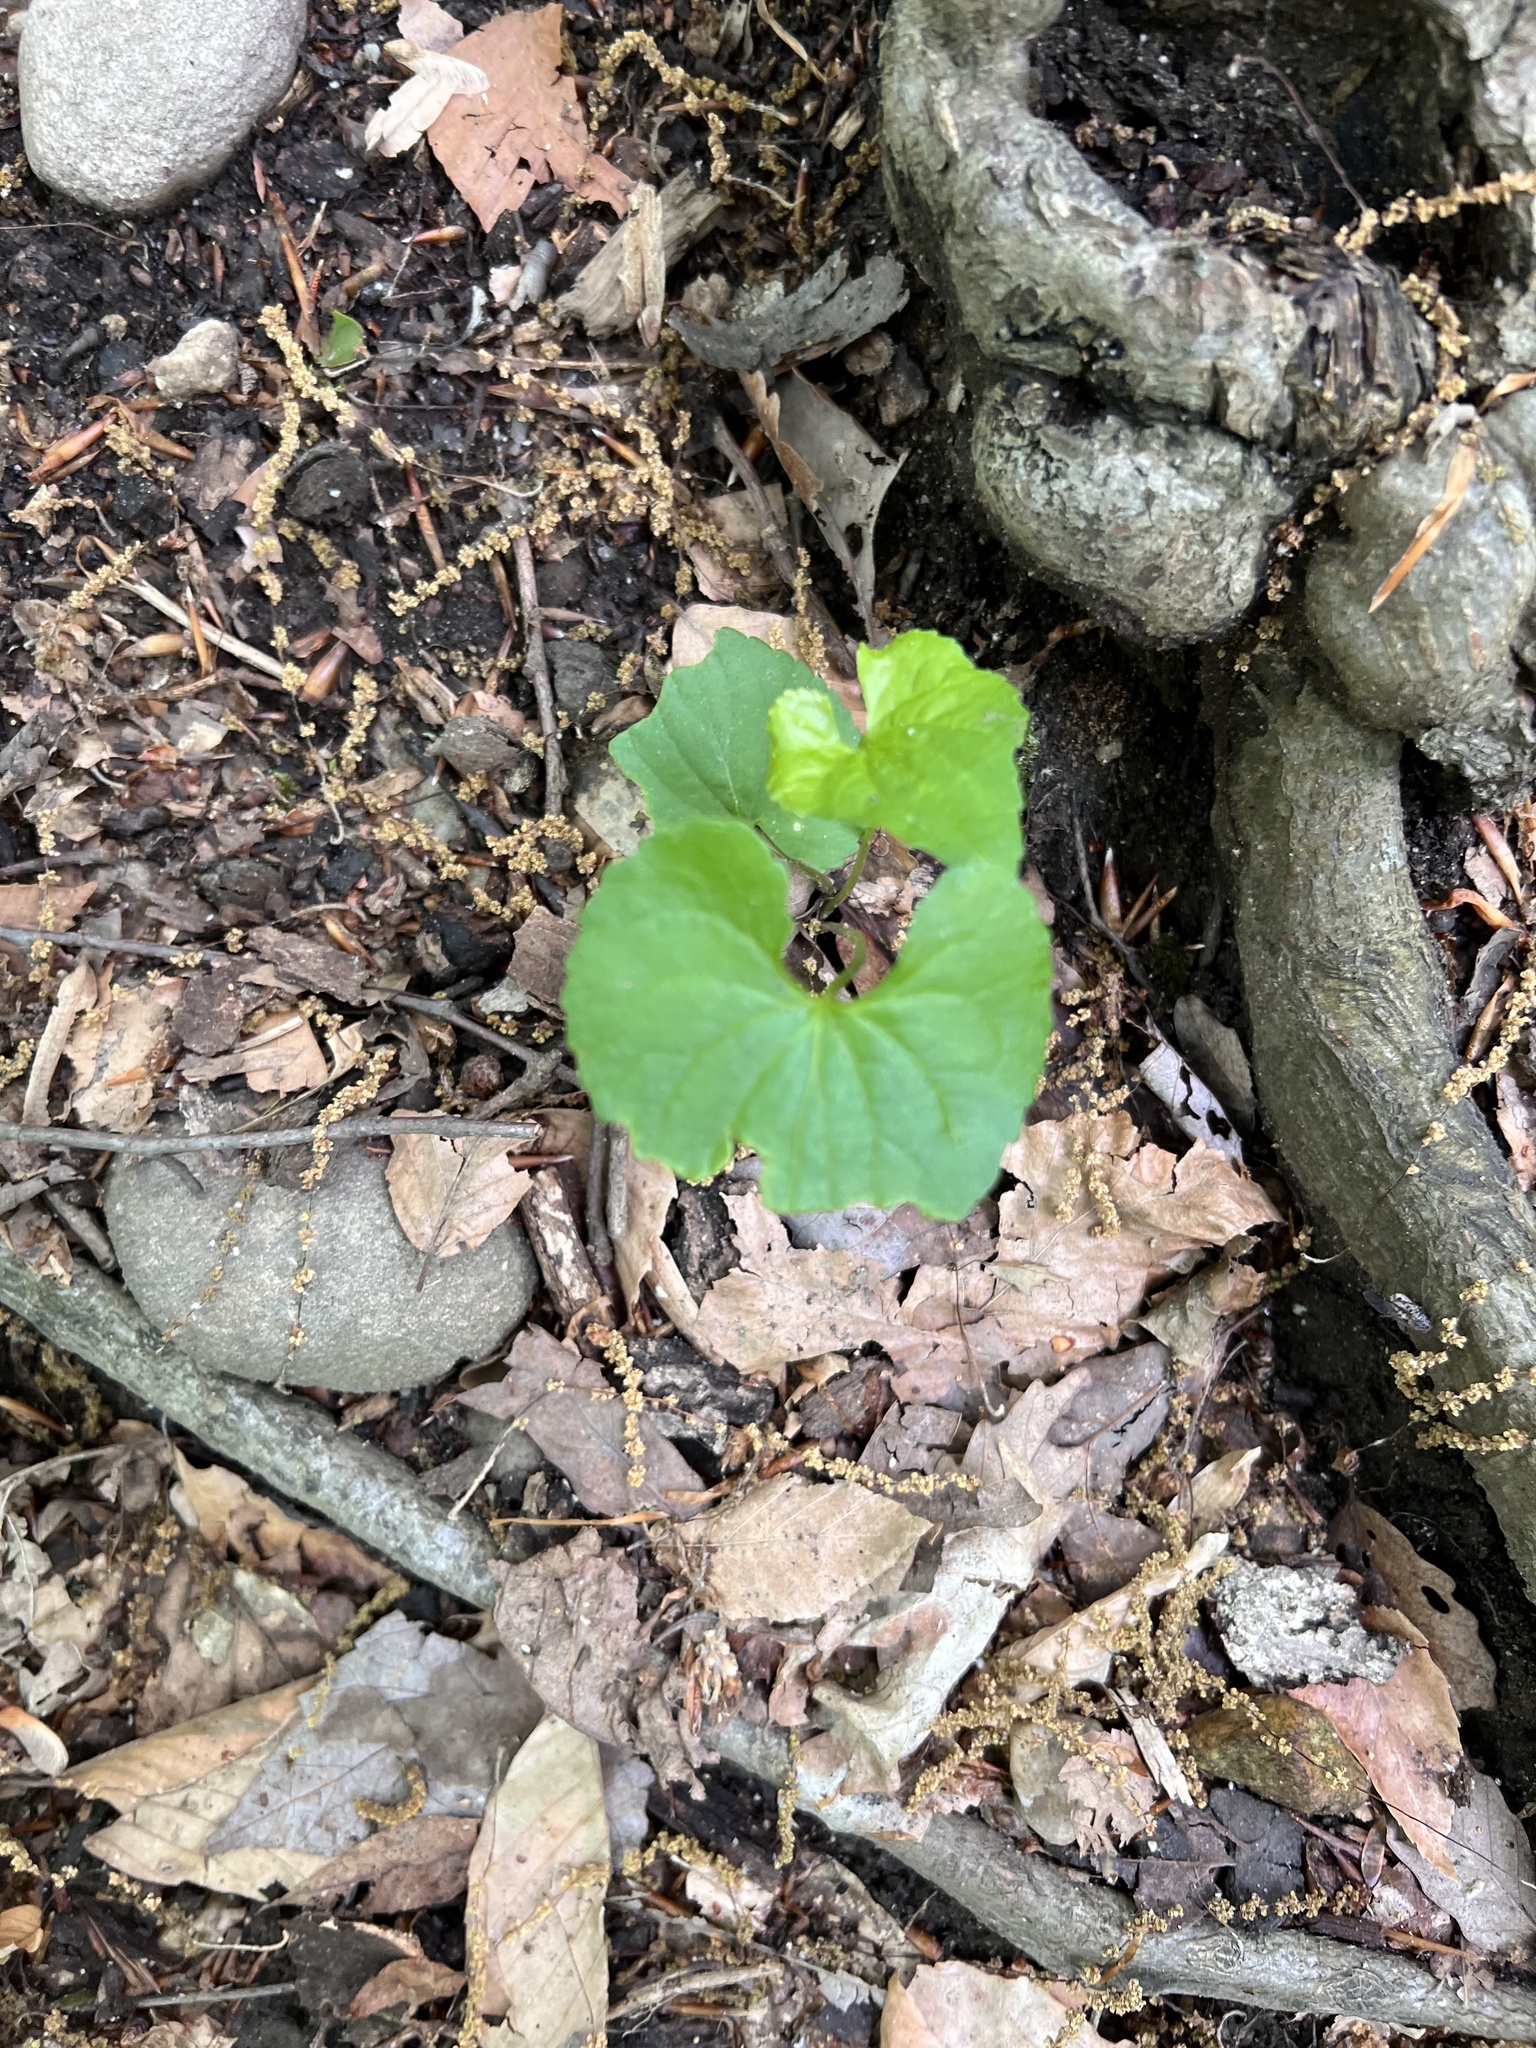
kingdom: Plantae
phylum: Tracheophyta
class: Magnoliopsida
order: Brassicales
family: Brassicaceae
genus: Alliaria
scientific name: Alliaria petiolata
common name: Garlic mustard
